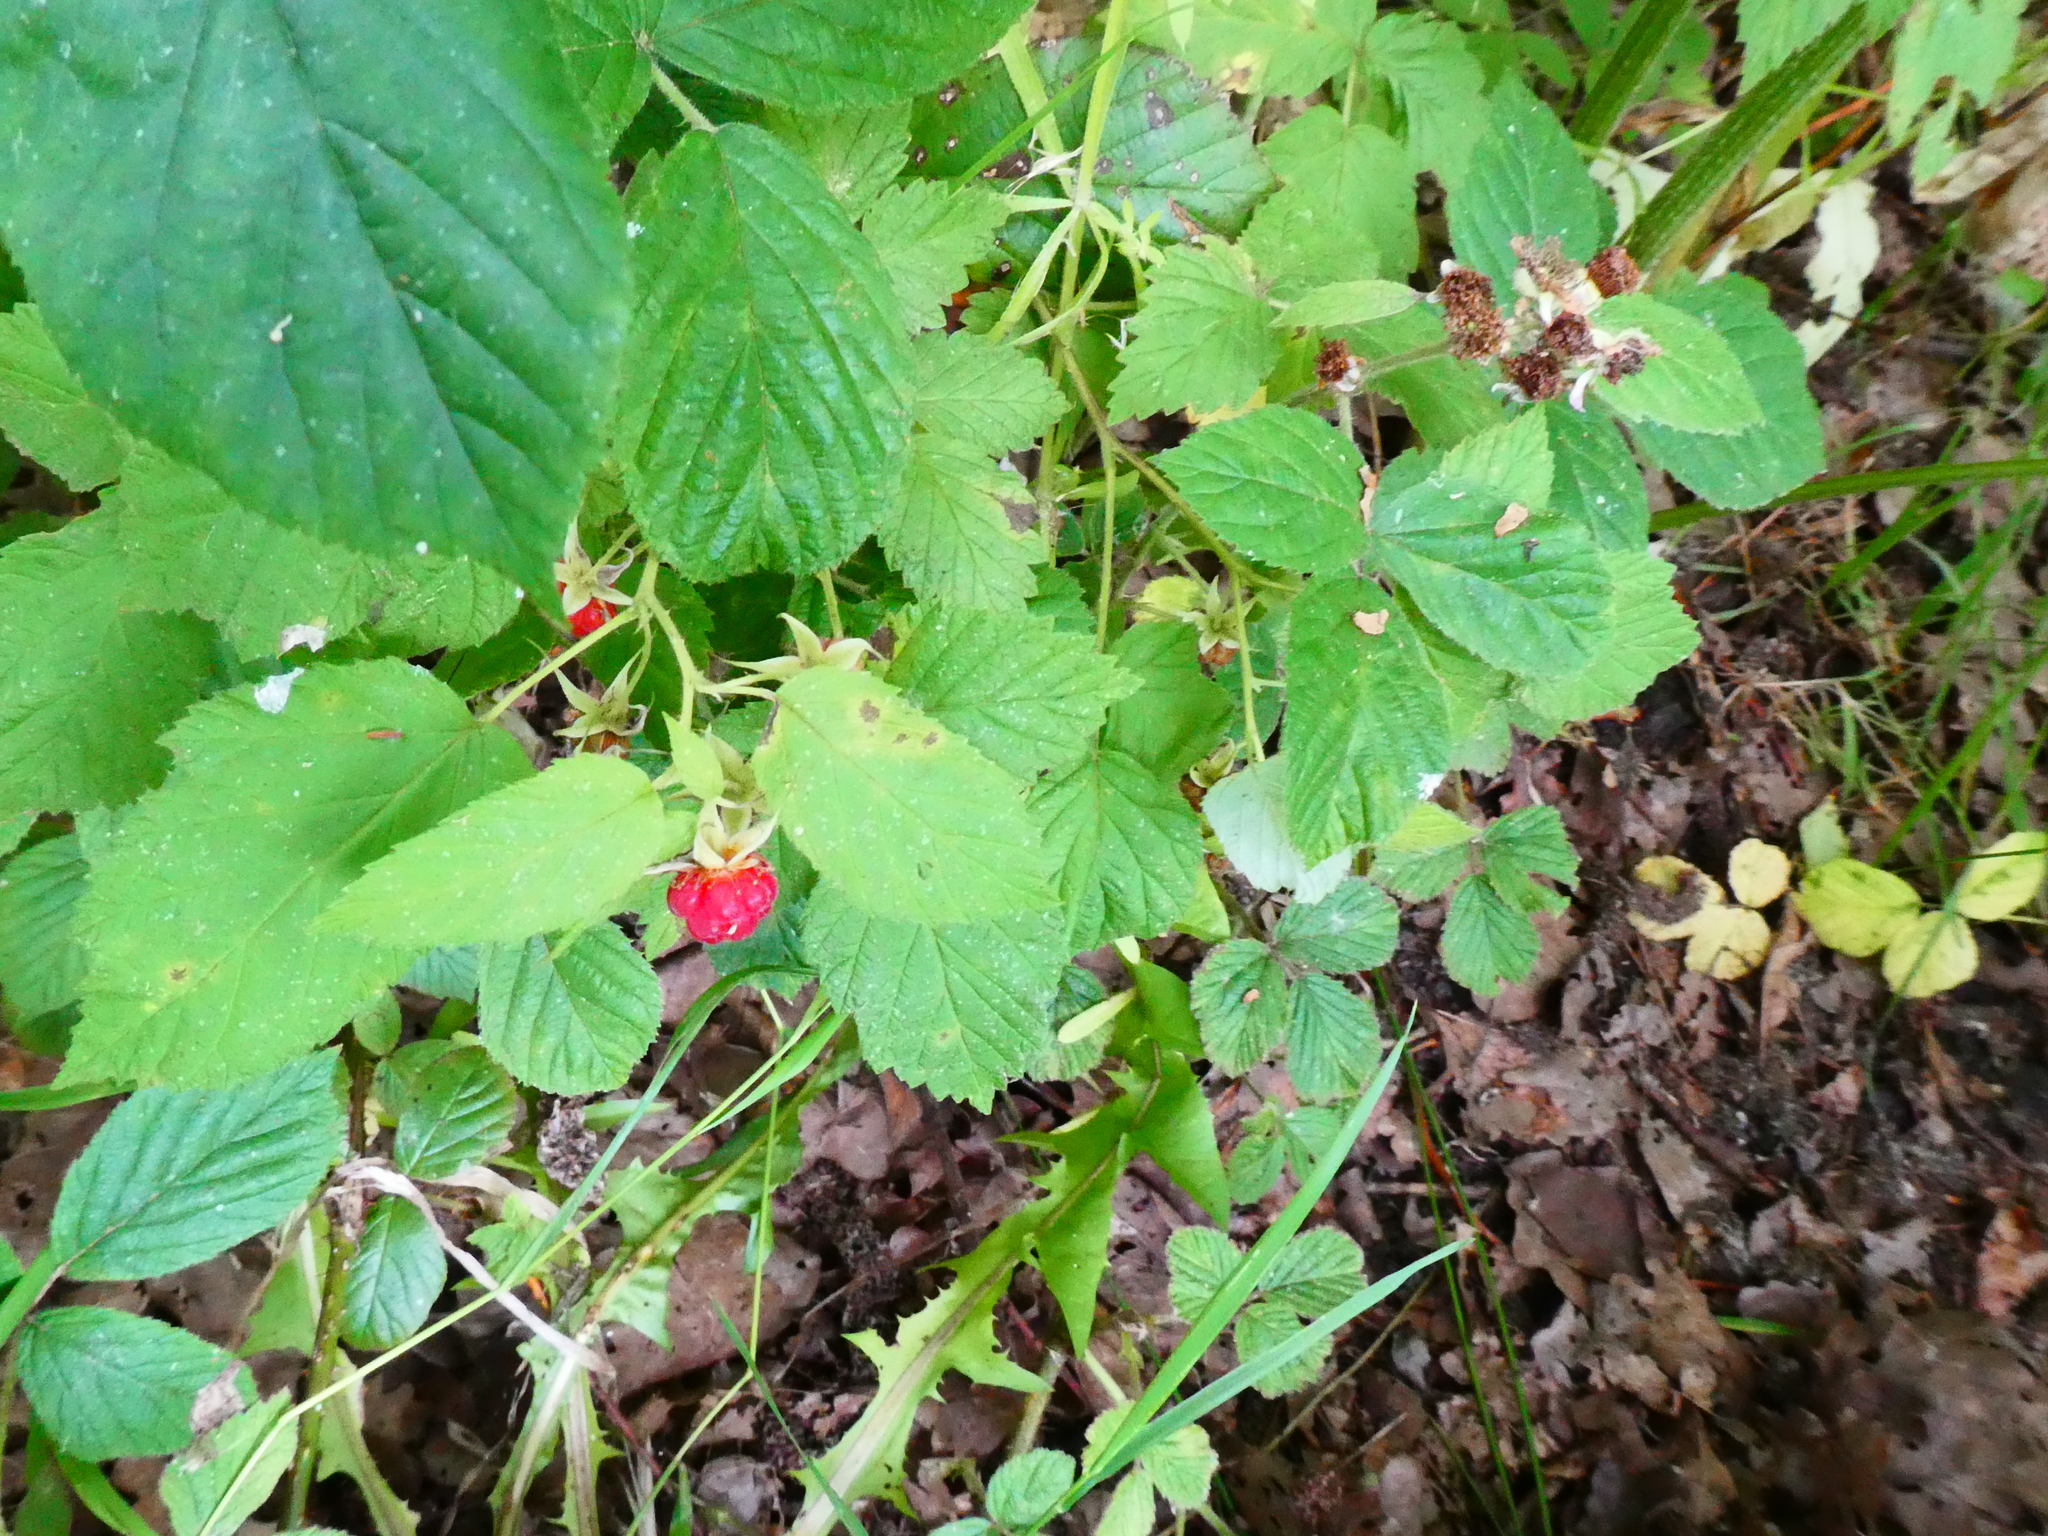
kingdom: Plantae
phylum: Tracheophyta
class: Magnoliopsida
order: Rosales
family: Rosaceae
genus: Rubus
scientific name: Rubus idaeus
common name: Raspberry
